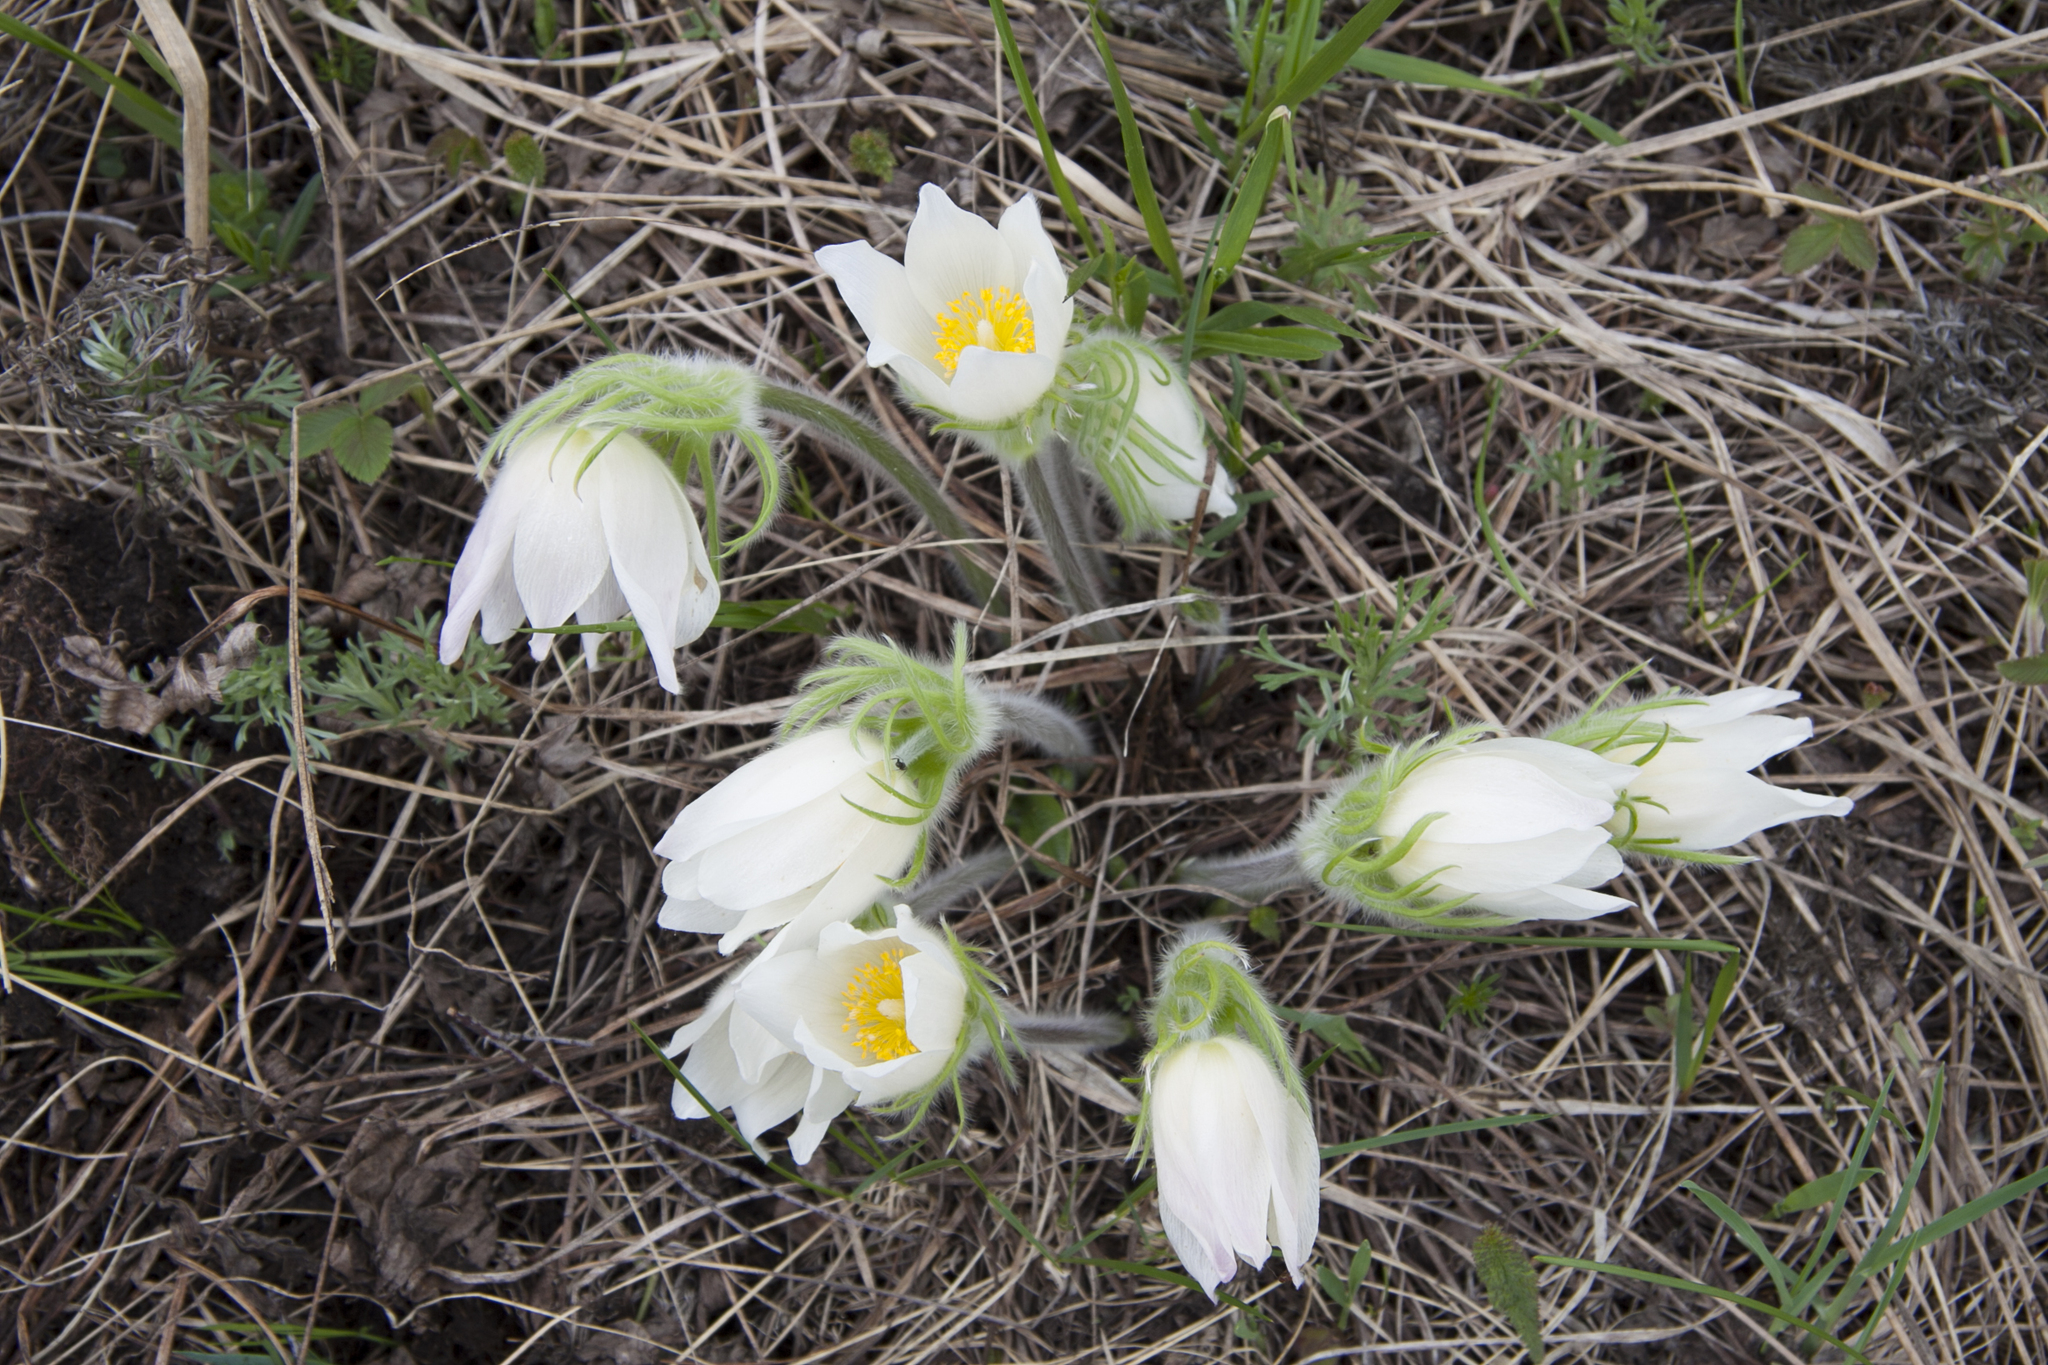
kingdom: Plantae
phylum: Tracheophyta
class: Magnoliopsida
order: Ranunculales
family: Ranunculaceae
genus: Pulsatilla
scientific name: Pulsatilla patens
